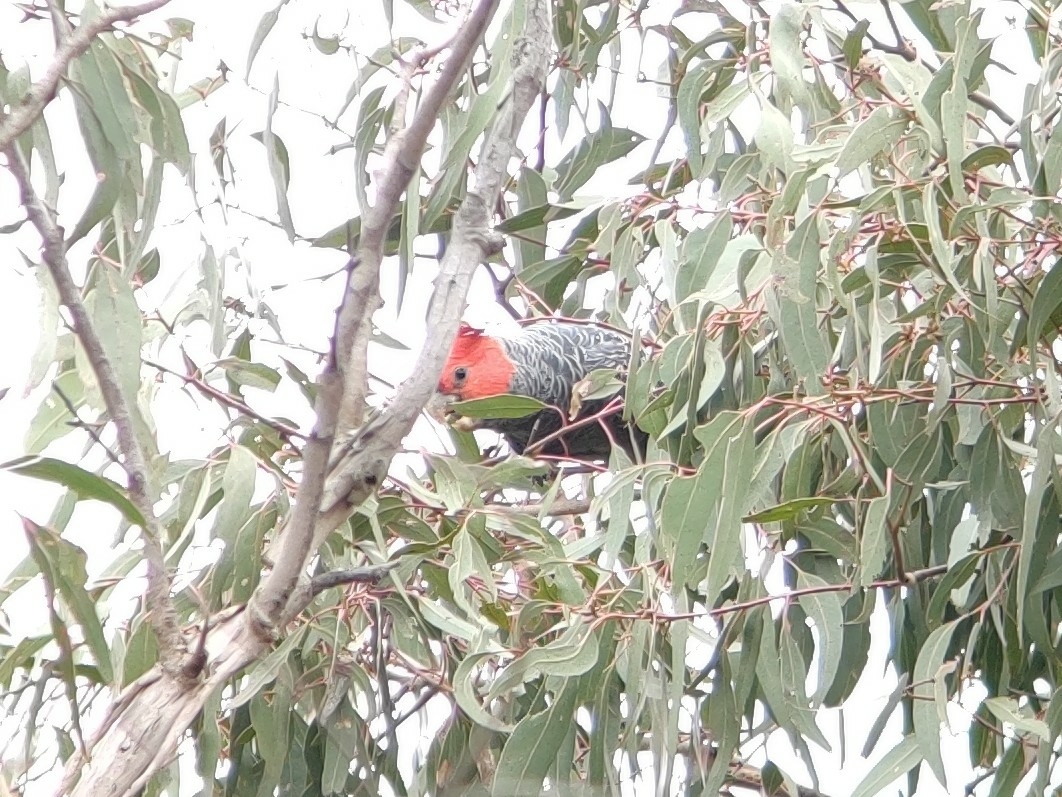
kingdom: Animalia
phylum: Chordata
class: Aves
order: Psittaciformes
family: Psittacidae
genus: Callocephalon
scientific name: Callocephalon fimbriatum
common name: Gang-gang cockatoo
